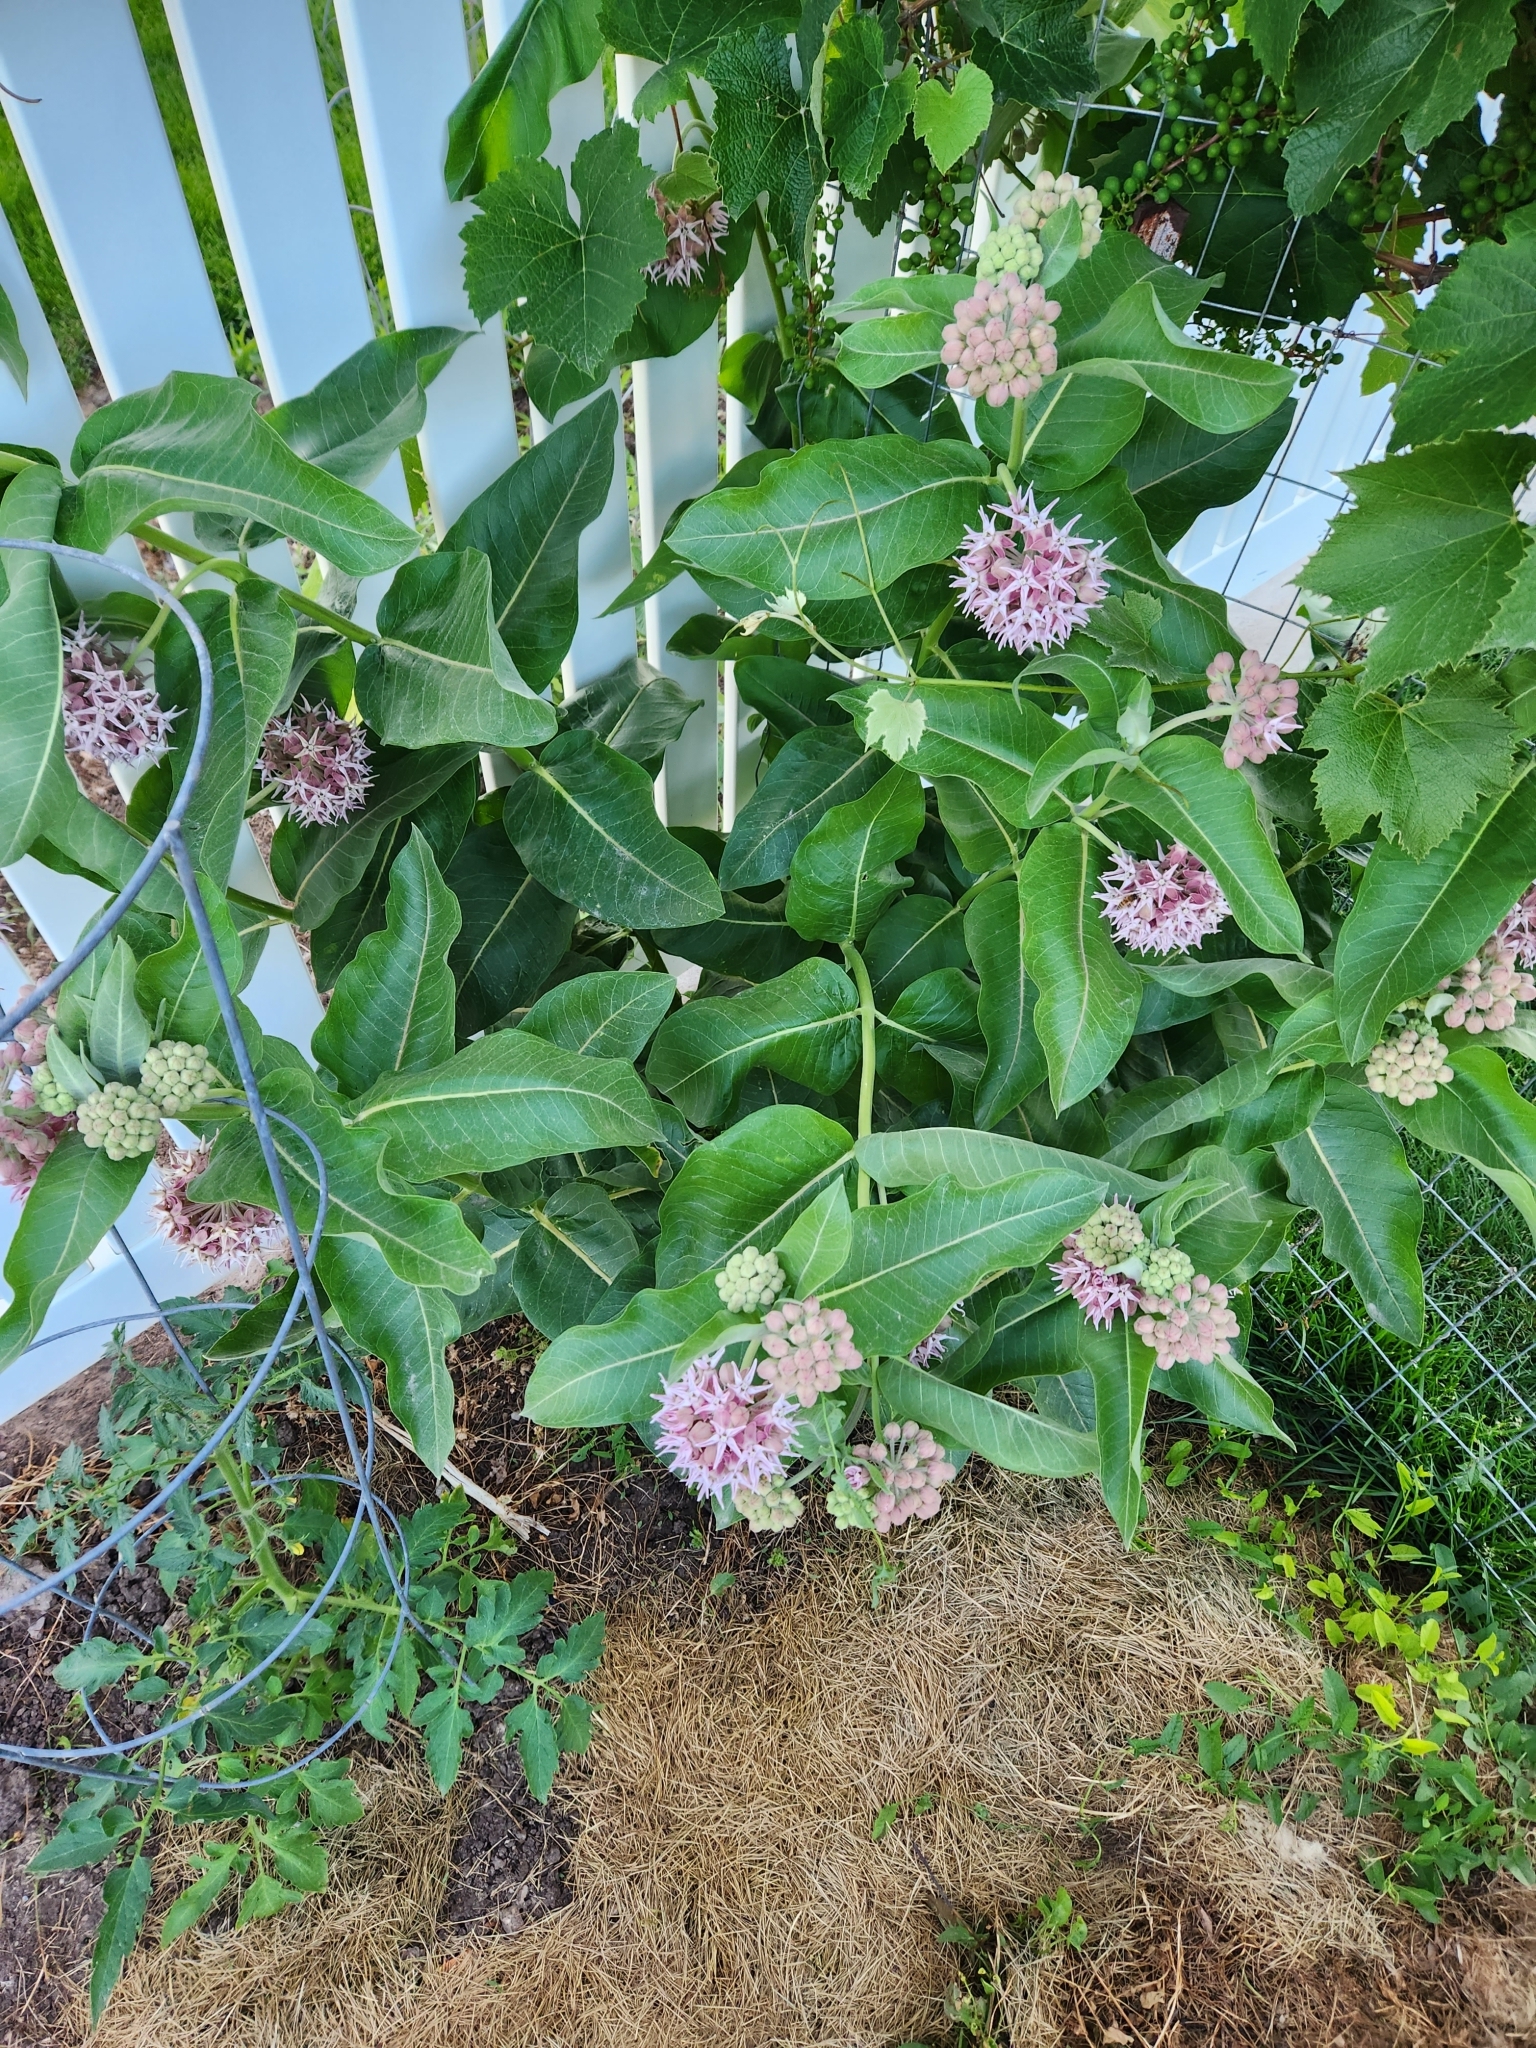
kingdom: Plantae
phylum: Tracheophyta
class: Magnoliopsida
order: Gentianales
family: Apocynaceae
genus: Asclepias
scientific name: Asclepias speciosa
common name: Showy milkweed
